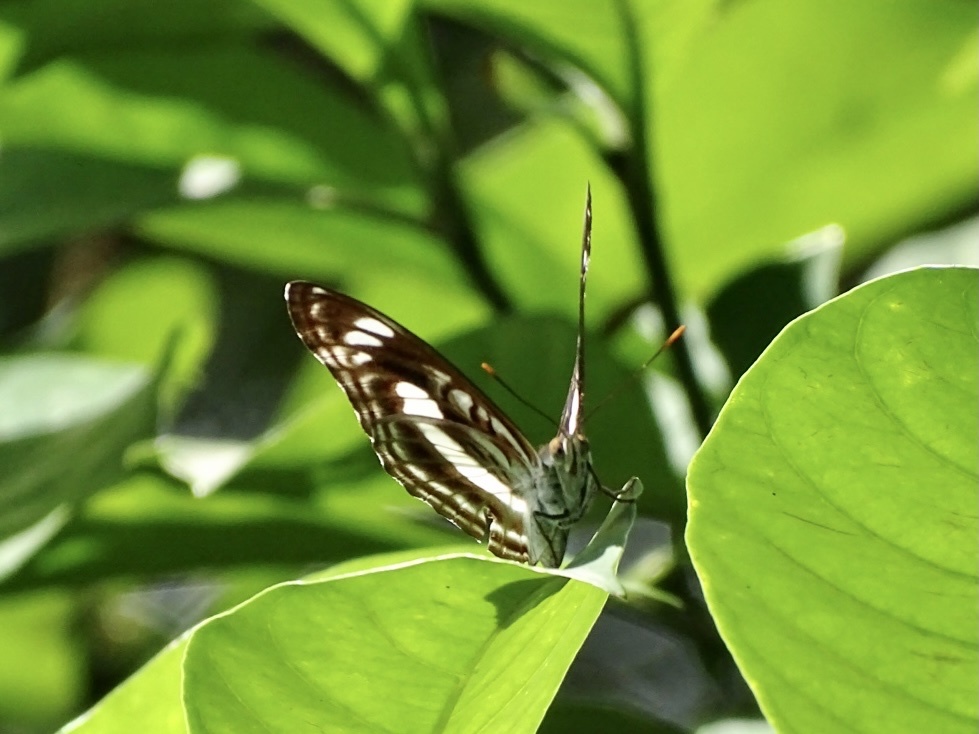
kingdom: Animalia
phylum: Arthropoda
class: Insecta
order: Lepidoptera
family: Nymphalidae
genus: Parathyma
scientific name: Parathyma selenophora
